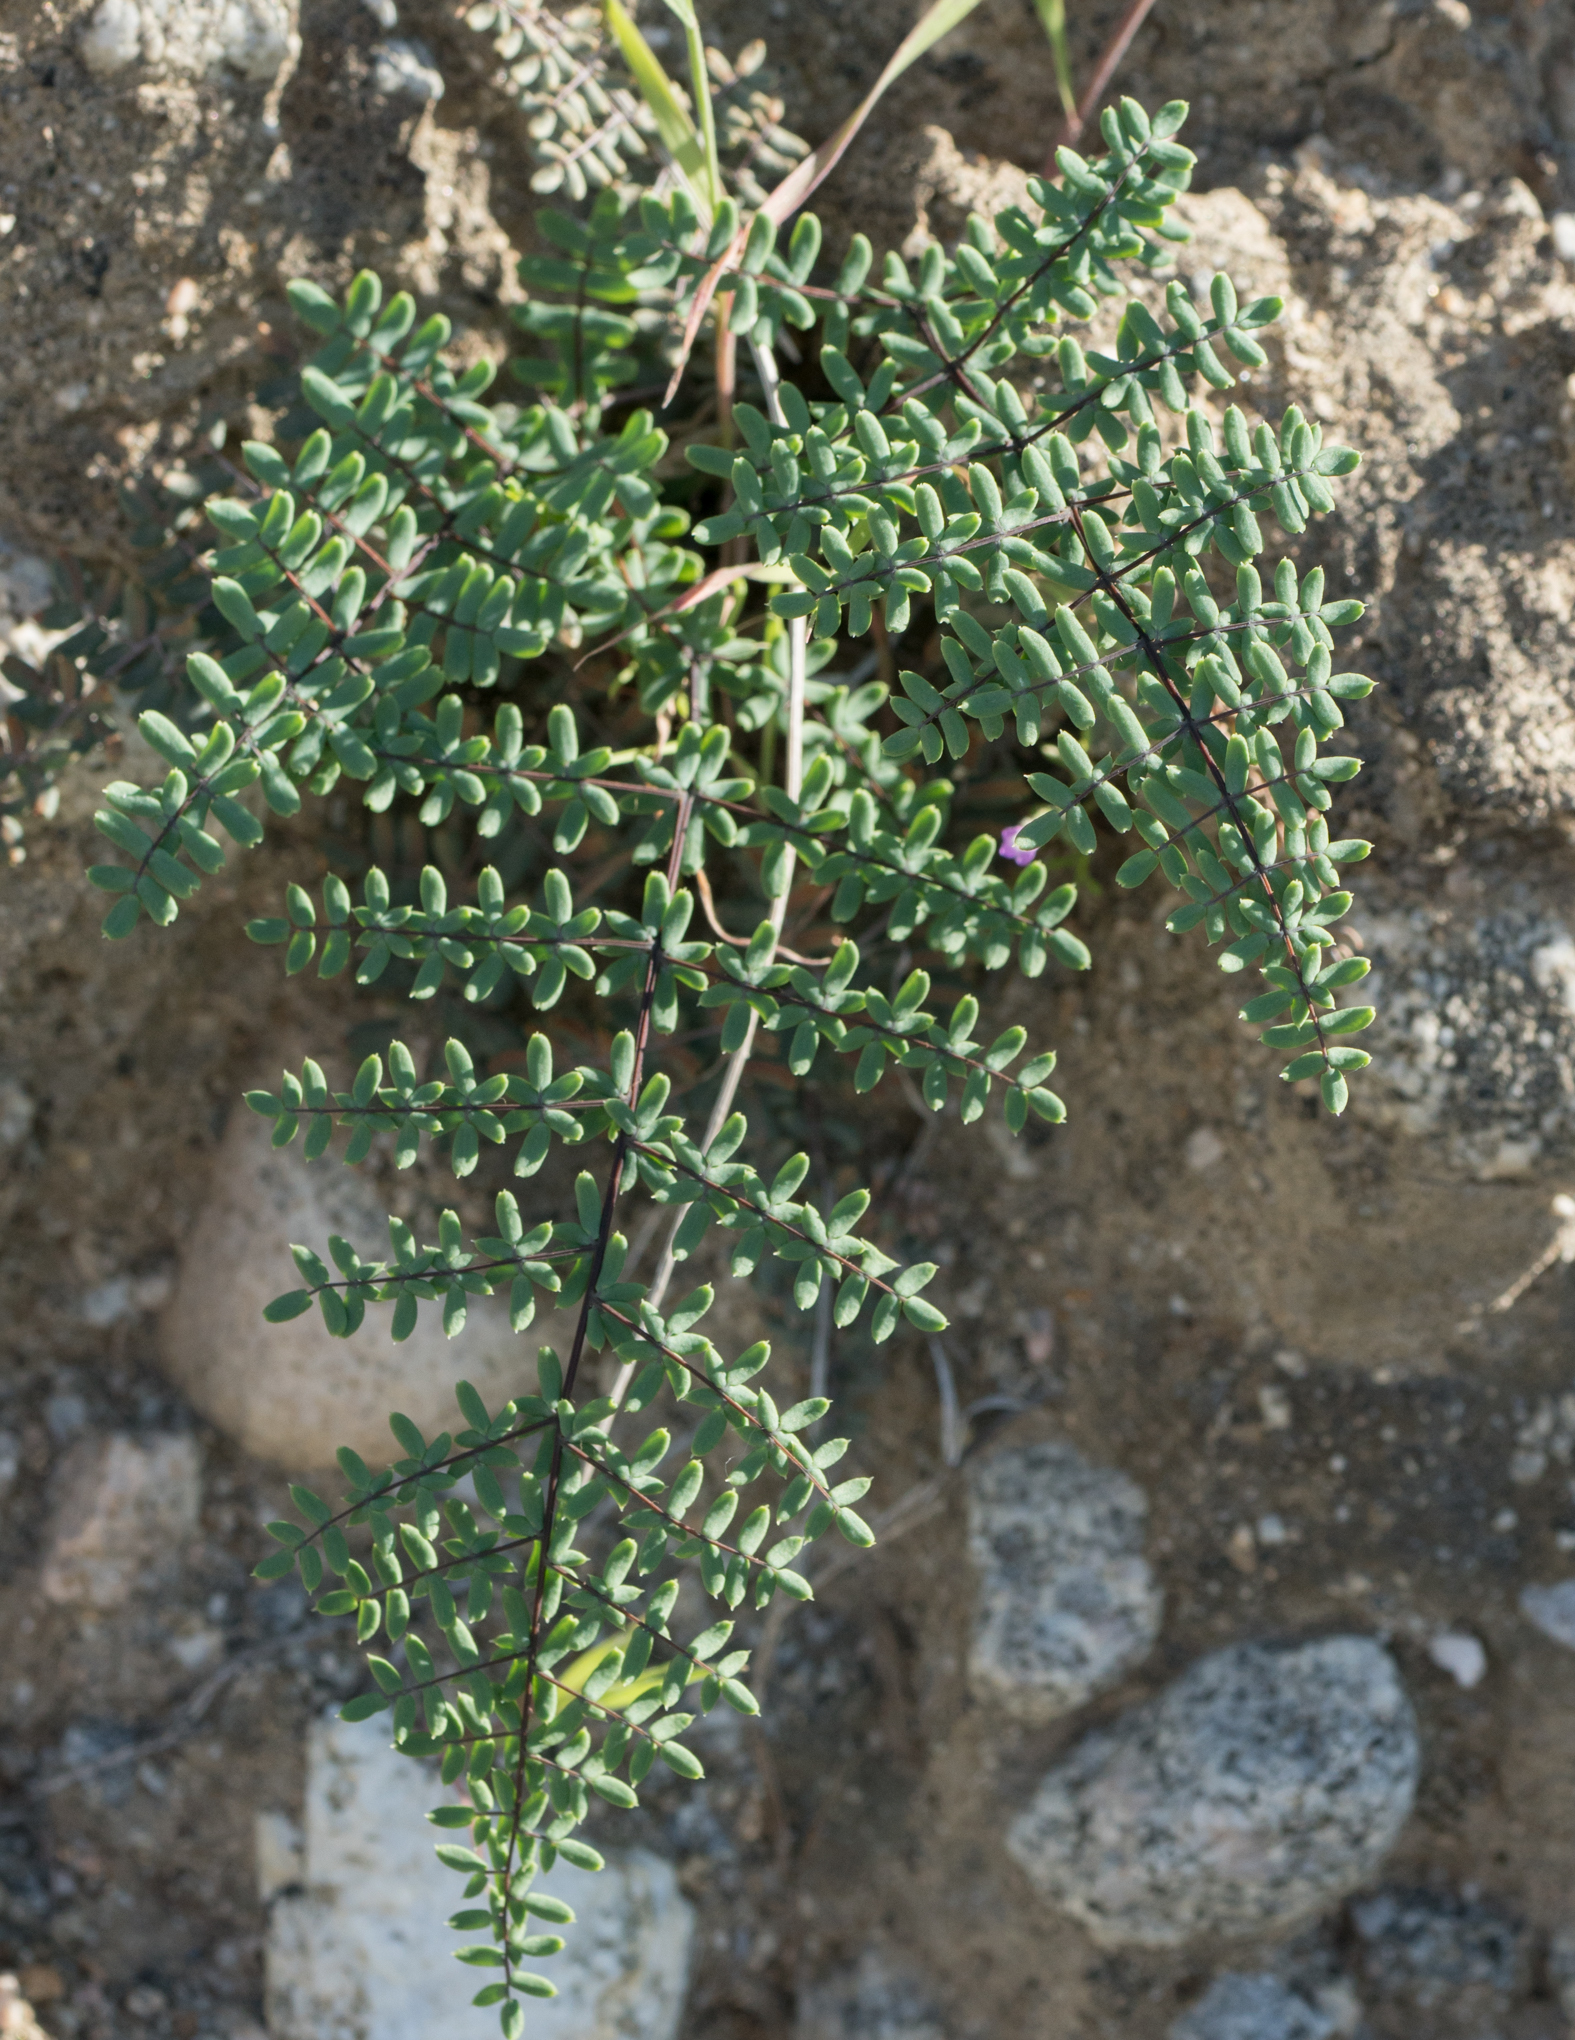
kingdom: Plantae
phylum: Tracheophyta
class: Polypodiopsida
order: Polypodiales
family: Pteridaceae
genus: Pellaea
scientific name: Pellaea andromedifolia
